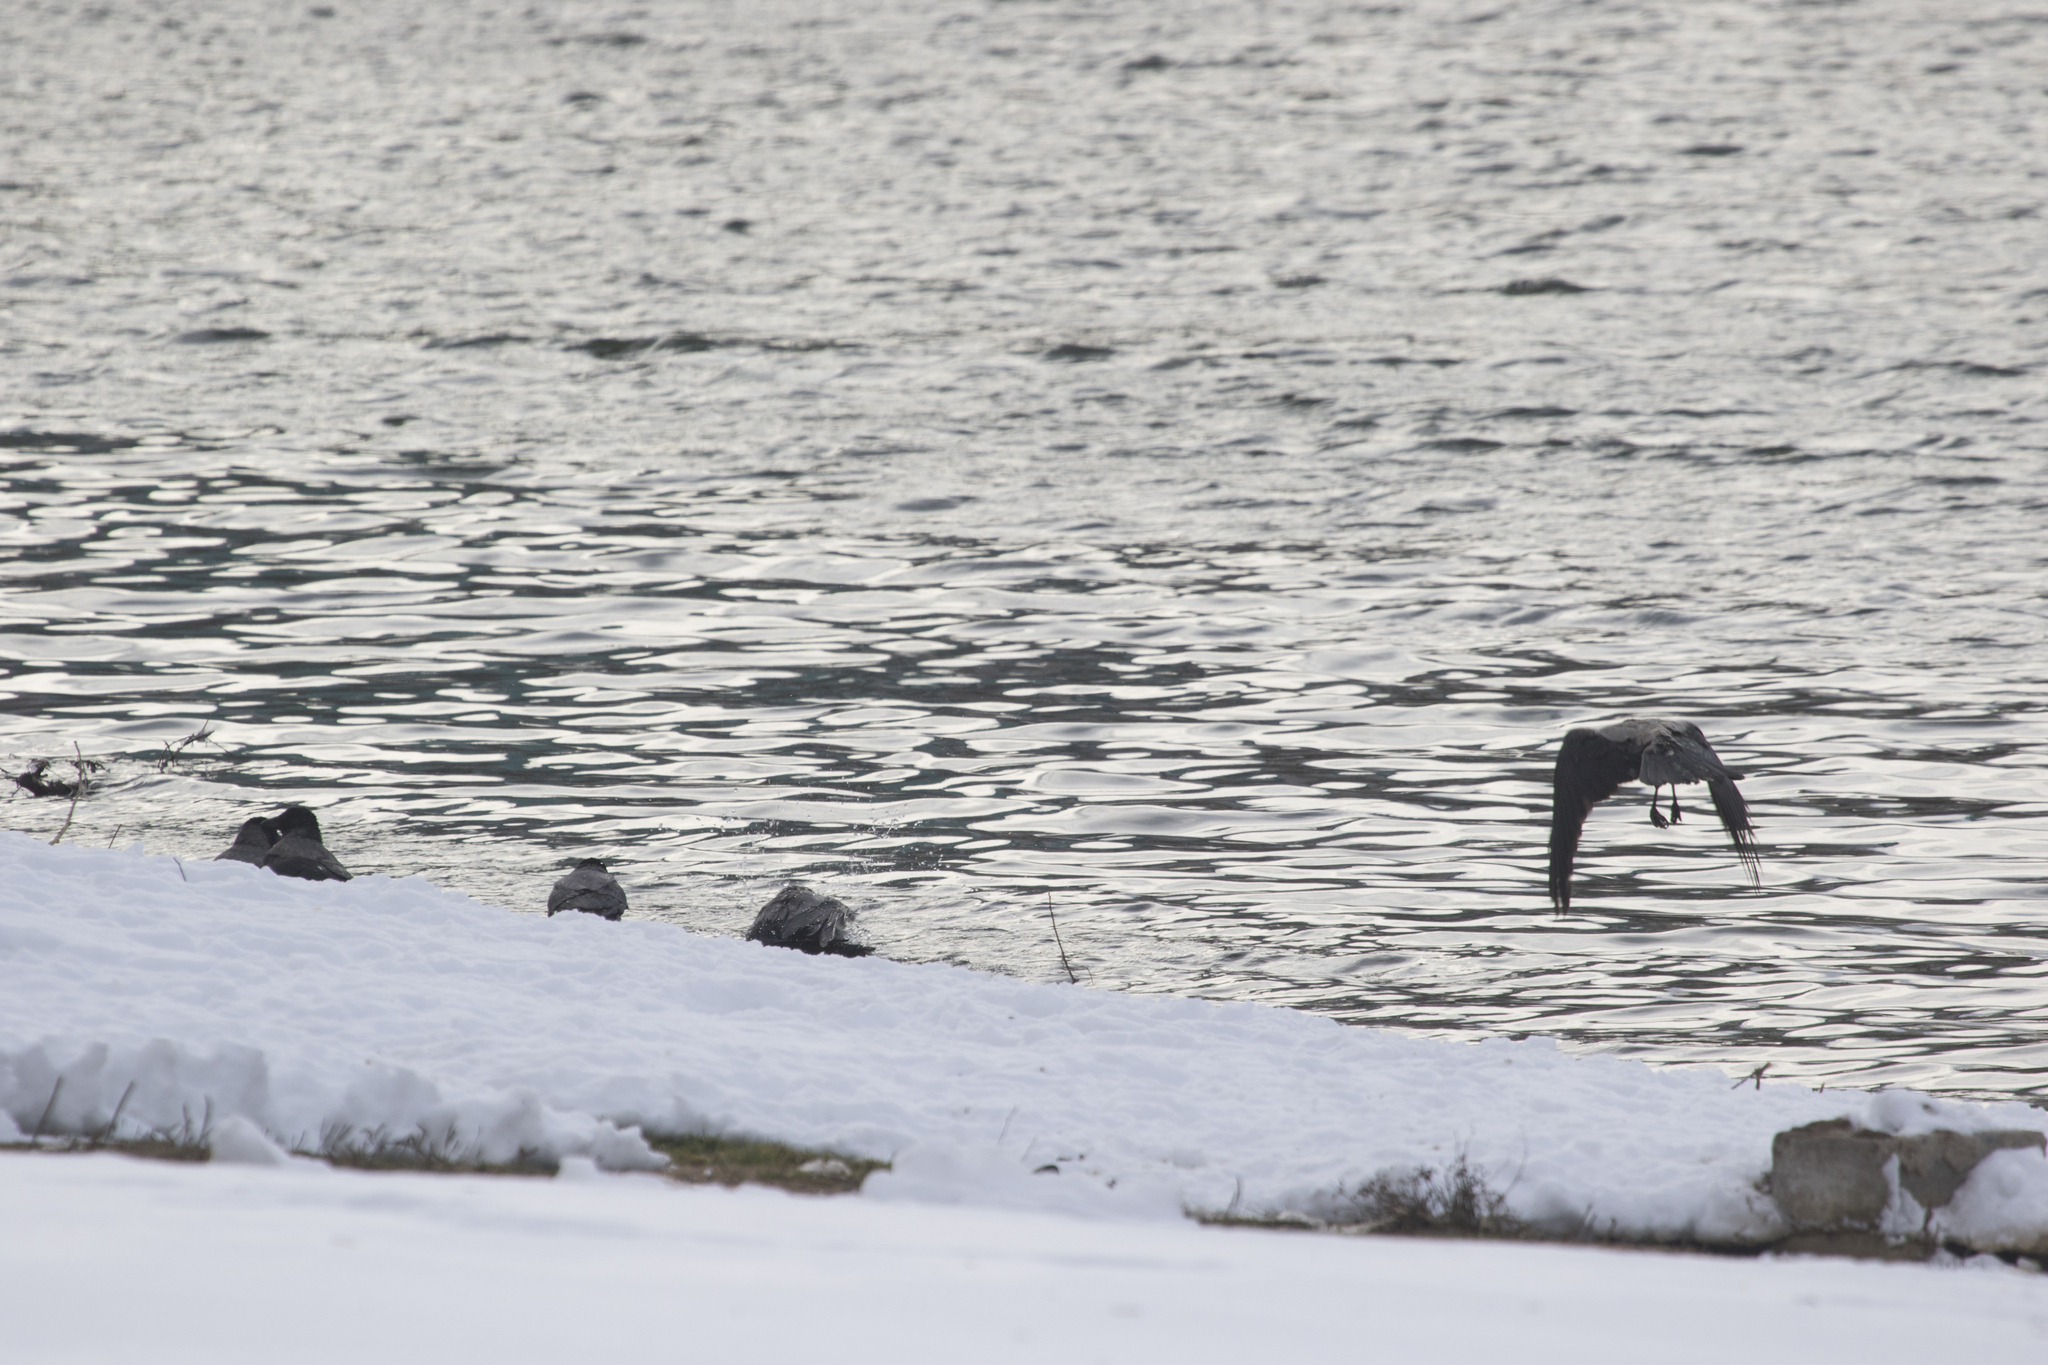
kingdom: Animalia
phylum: Chordata
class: Aves
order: Passeriformes
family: Corvidae
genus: Corvus
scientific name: Corvus cornix
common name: Hooded crow
